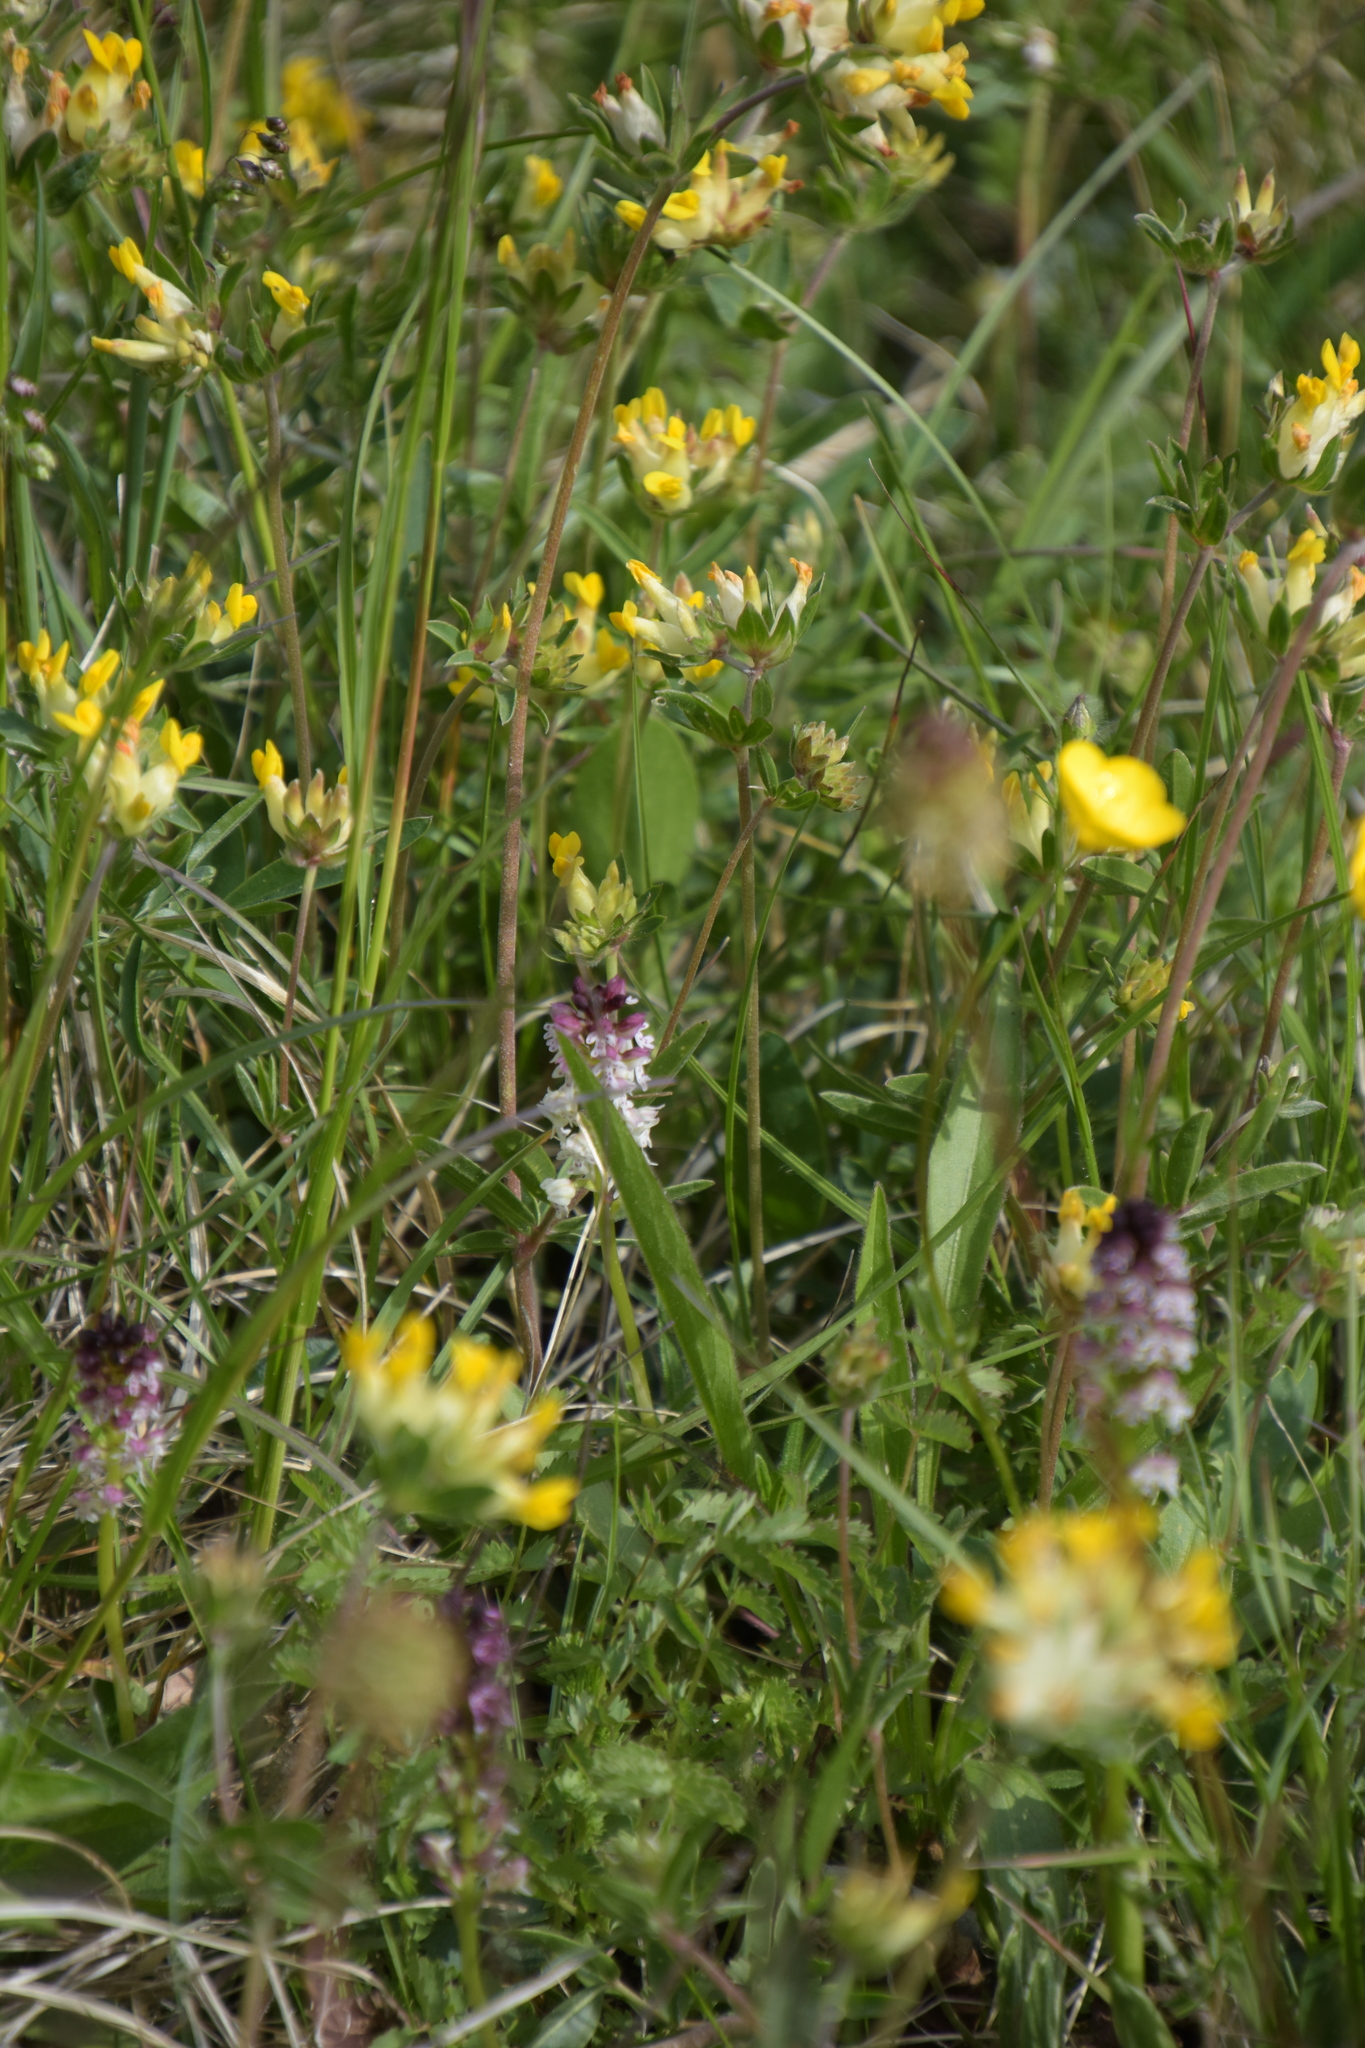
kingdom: Plantae
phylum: Tracheophyta
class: Liliopsida
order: Asparagales
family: Orchidaceae
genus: Neotinea
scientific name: Neotinea ustulata
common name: Burnt orchid
